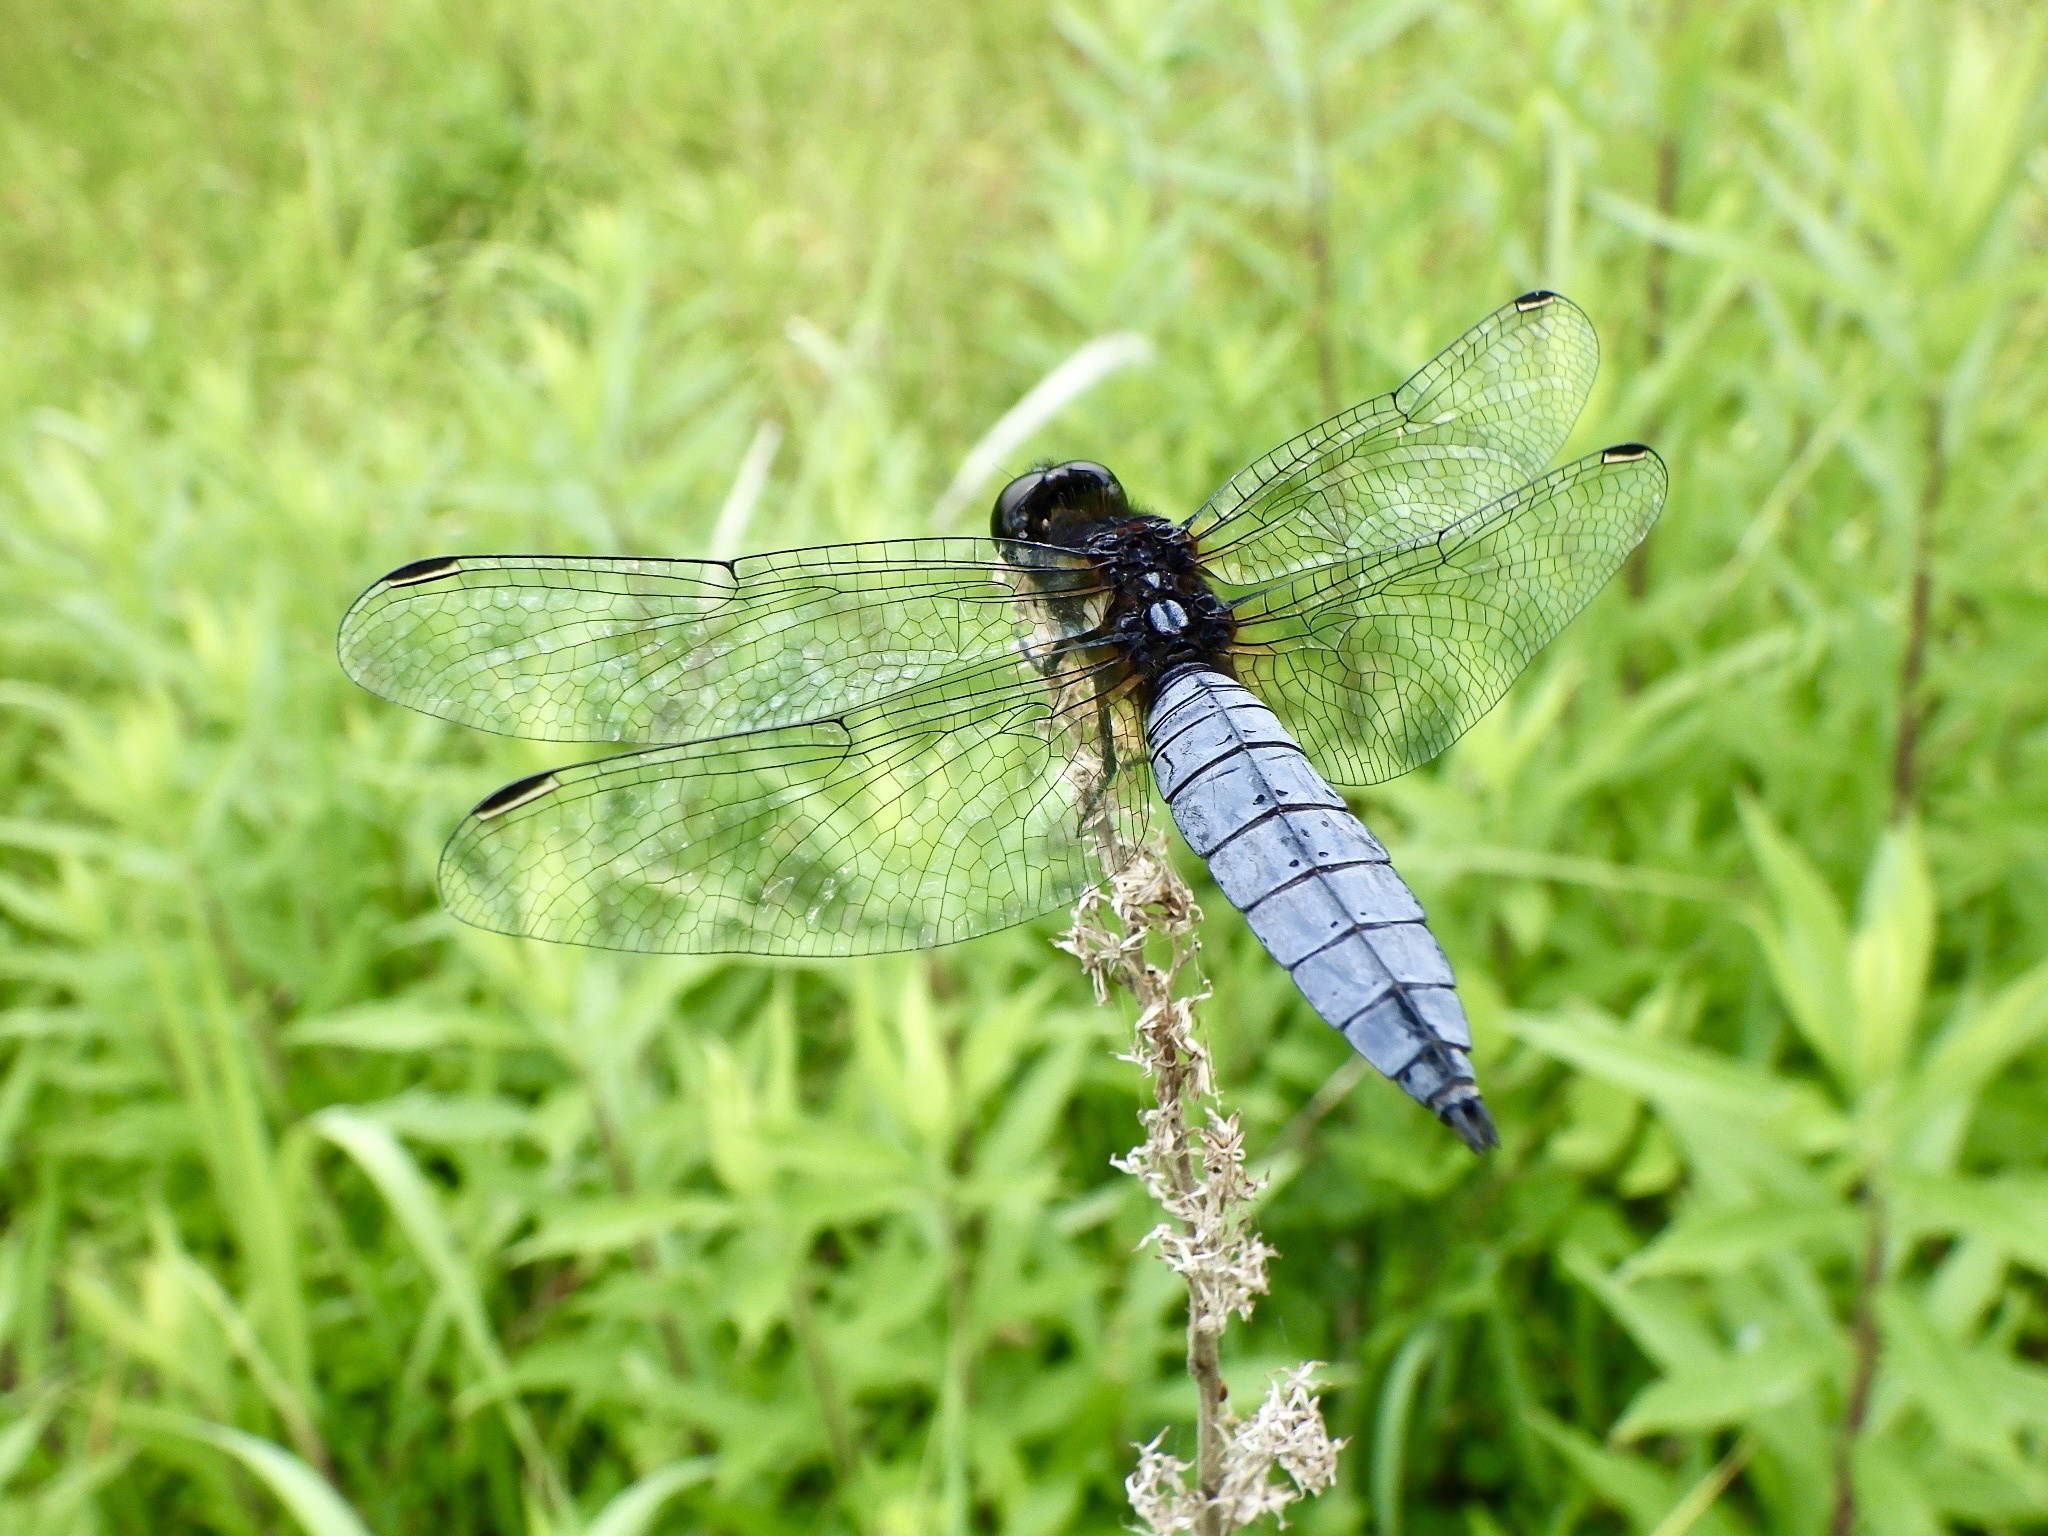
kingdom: Animalia
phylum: Arthropoda
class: Insecta
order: Odonata
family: Libellulidae
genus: Lyriothemis
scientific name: Lyriothemis pachygastra
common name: Wide-bellied skimmer
